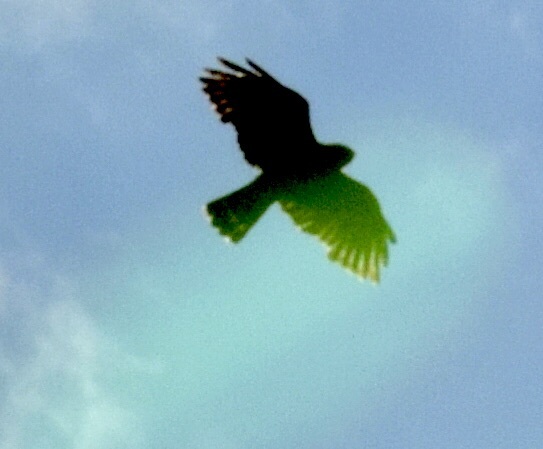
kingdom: Animalia
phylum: Chordata
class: Aves
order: Accipitriformes
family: Accipitridae
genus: Buteo
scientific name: Buteo platypterus
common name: Broad-winged hawk
